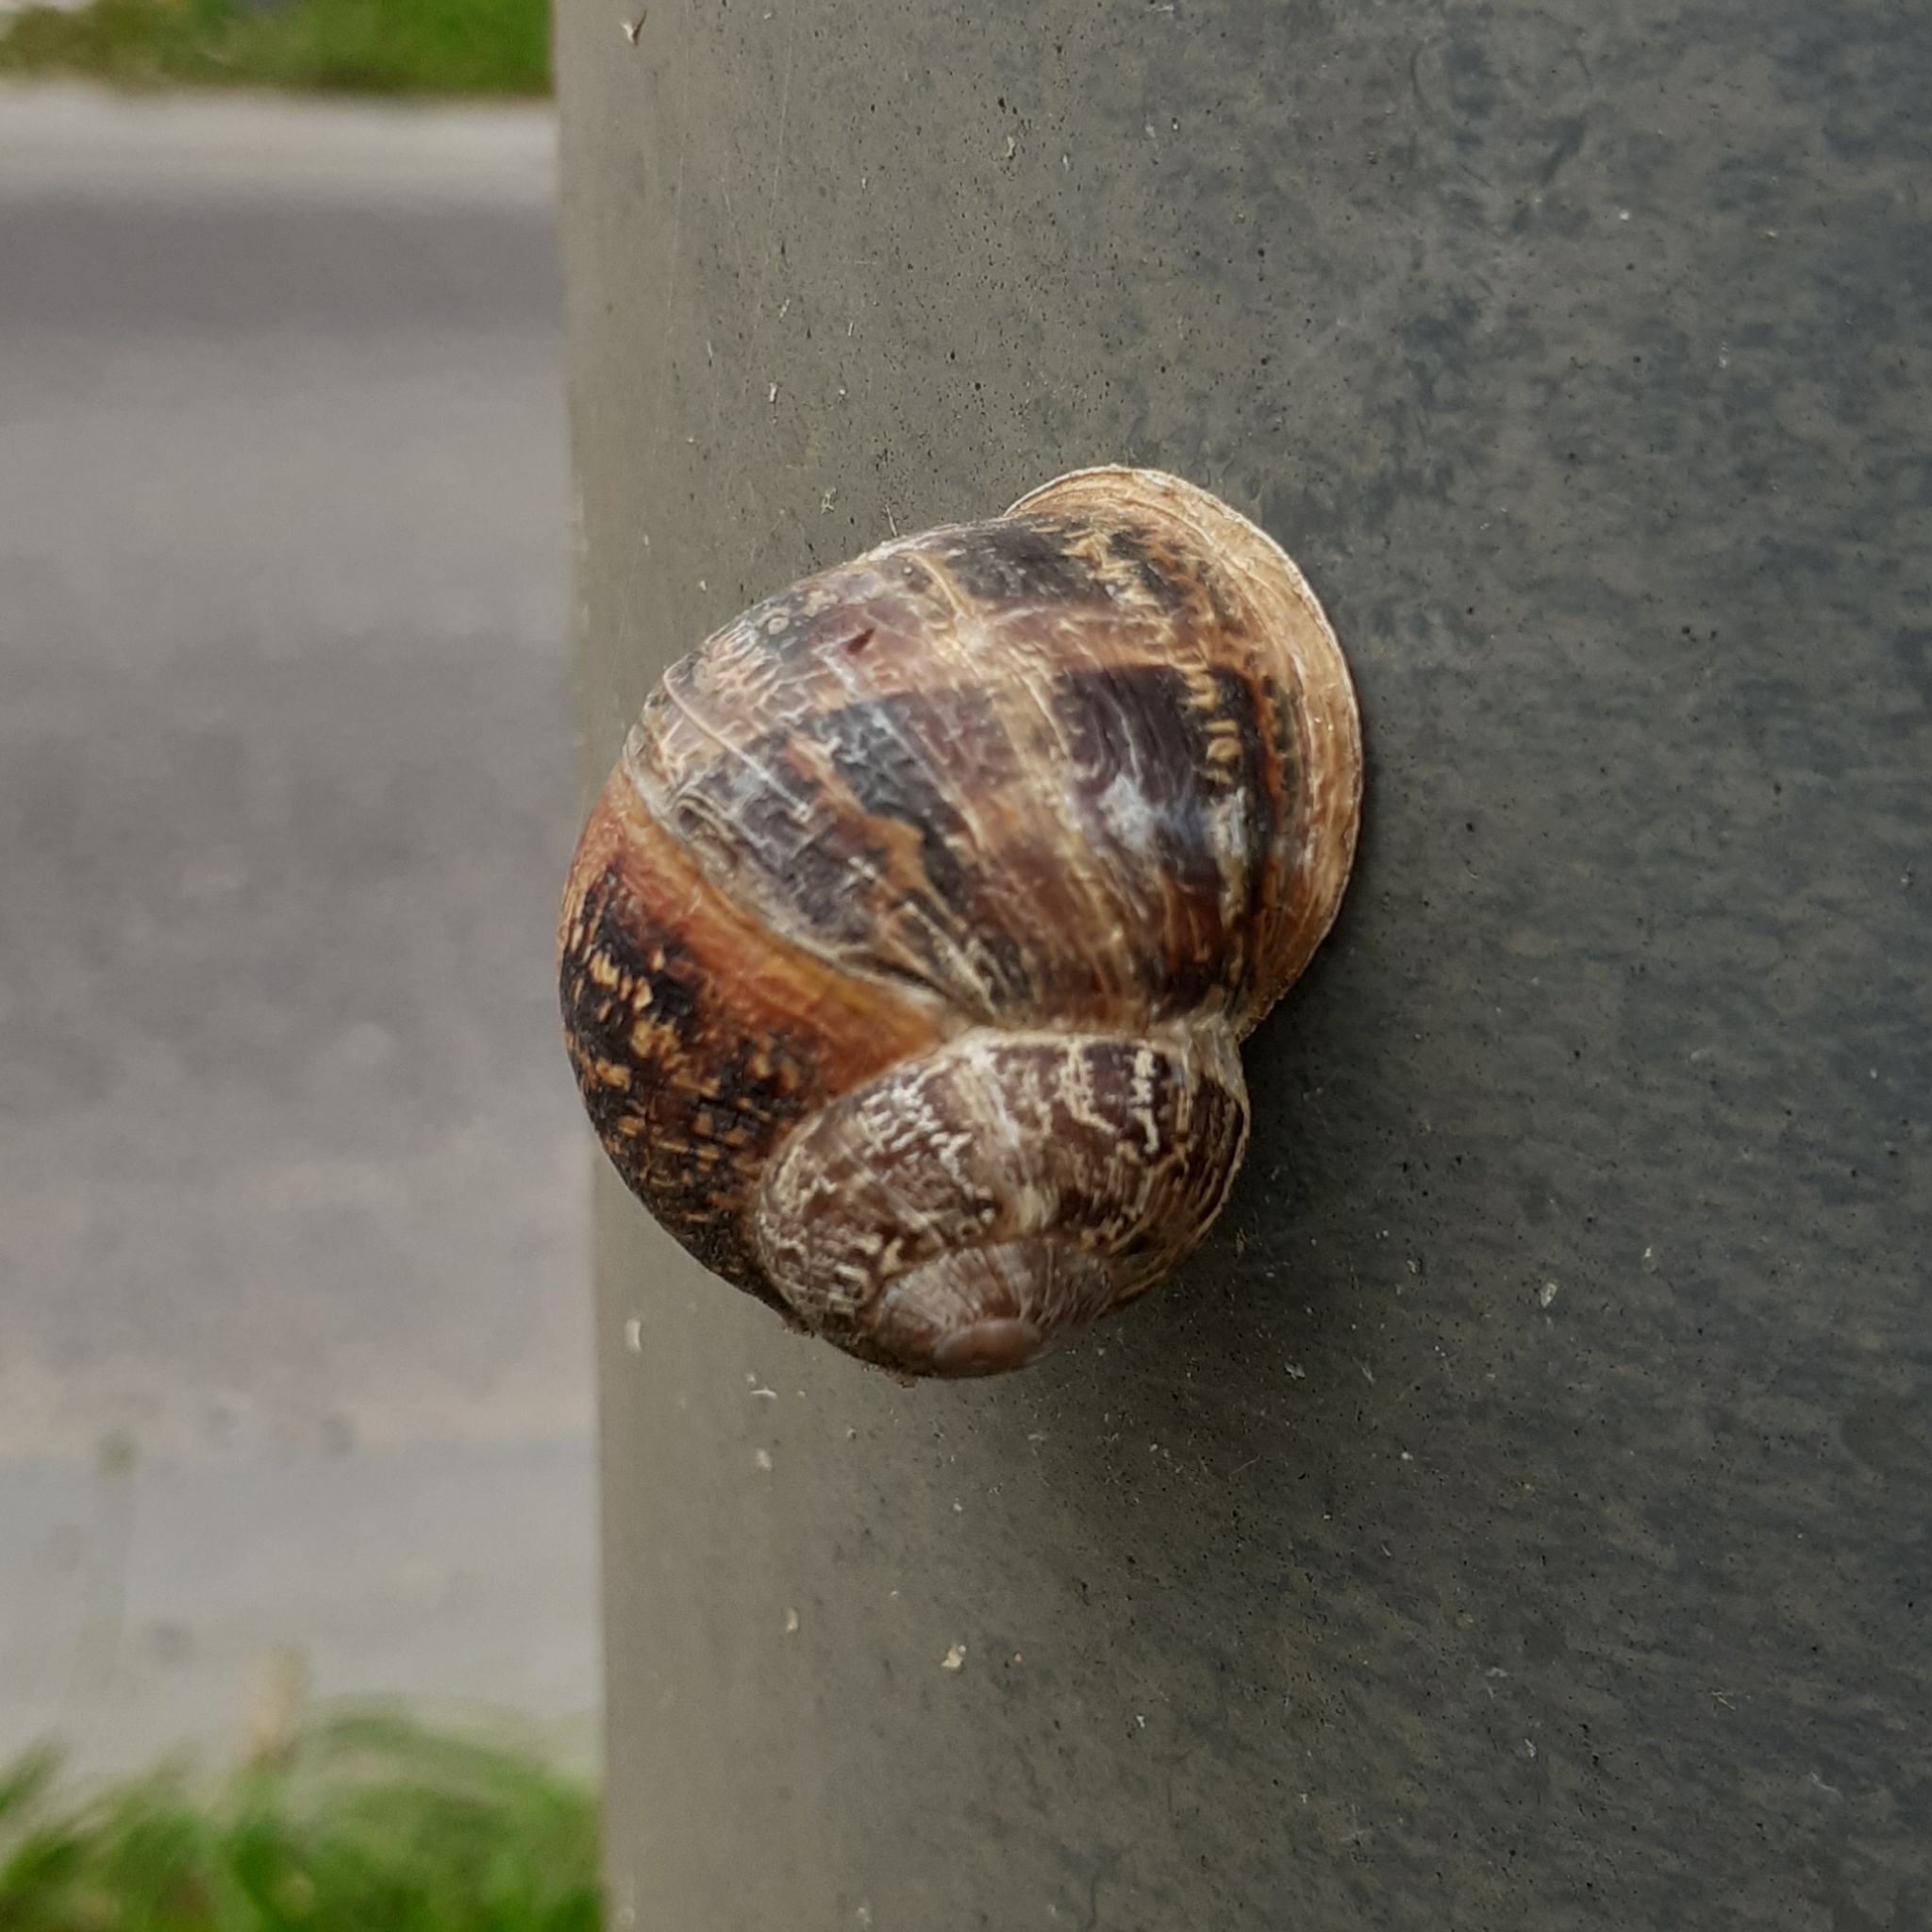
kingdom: Animalia
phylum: Mollusca
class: Gastropoda
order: Stylommatophora
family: Helicidae
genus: Cornu
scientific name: Cornu aspersum
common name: Brown garden snail
